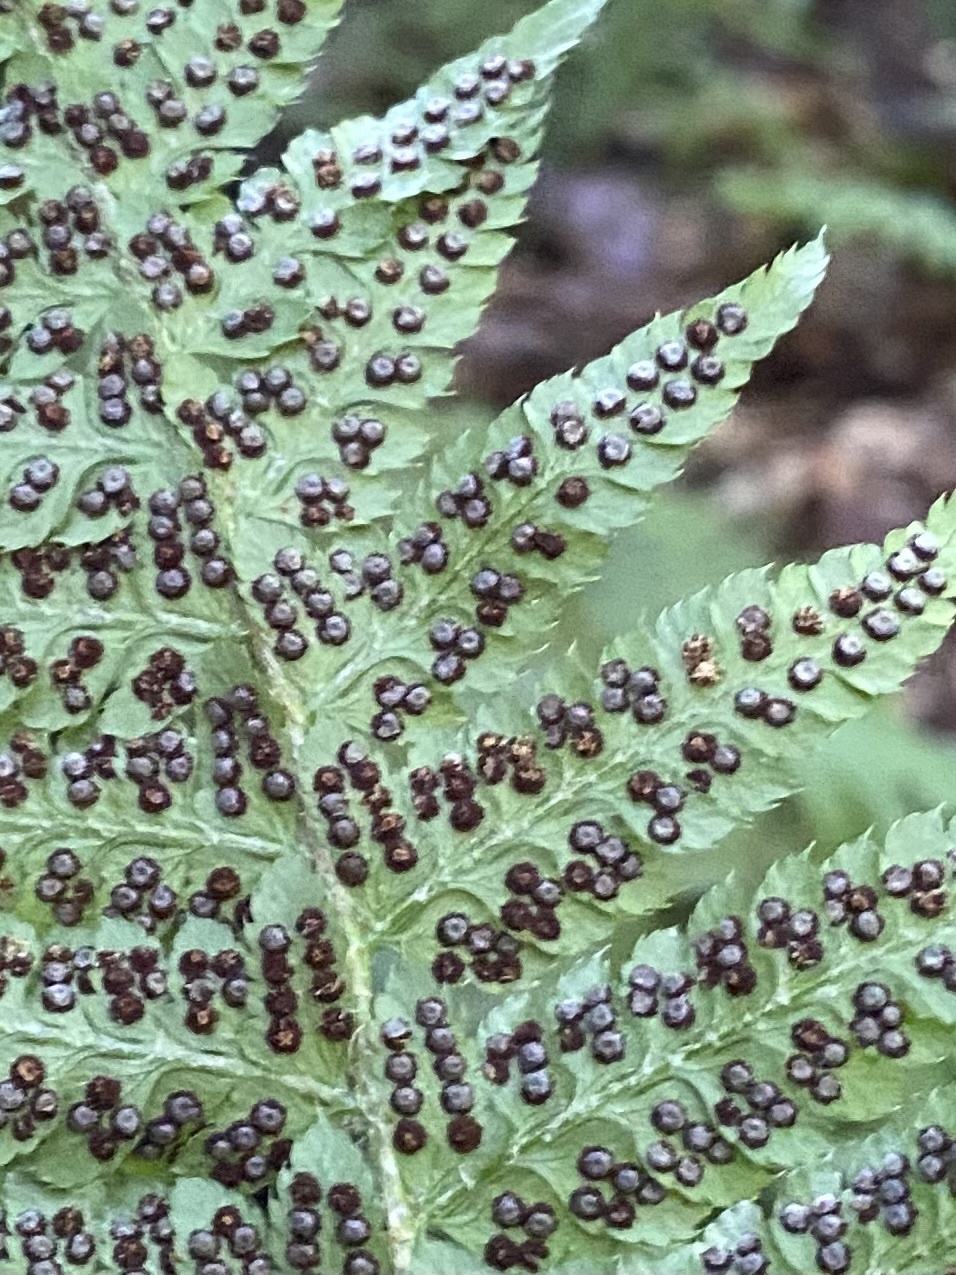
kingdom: Plantae
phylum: Tracheophyta
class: Polypodiopsida
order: Polypodiales
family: Dryopteridaceae
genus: Polystichum
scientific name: Polystichum braunii
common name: Braun's holly fern
